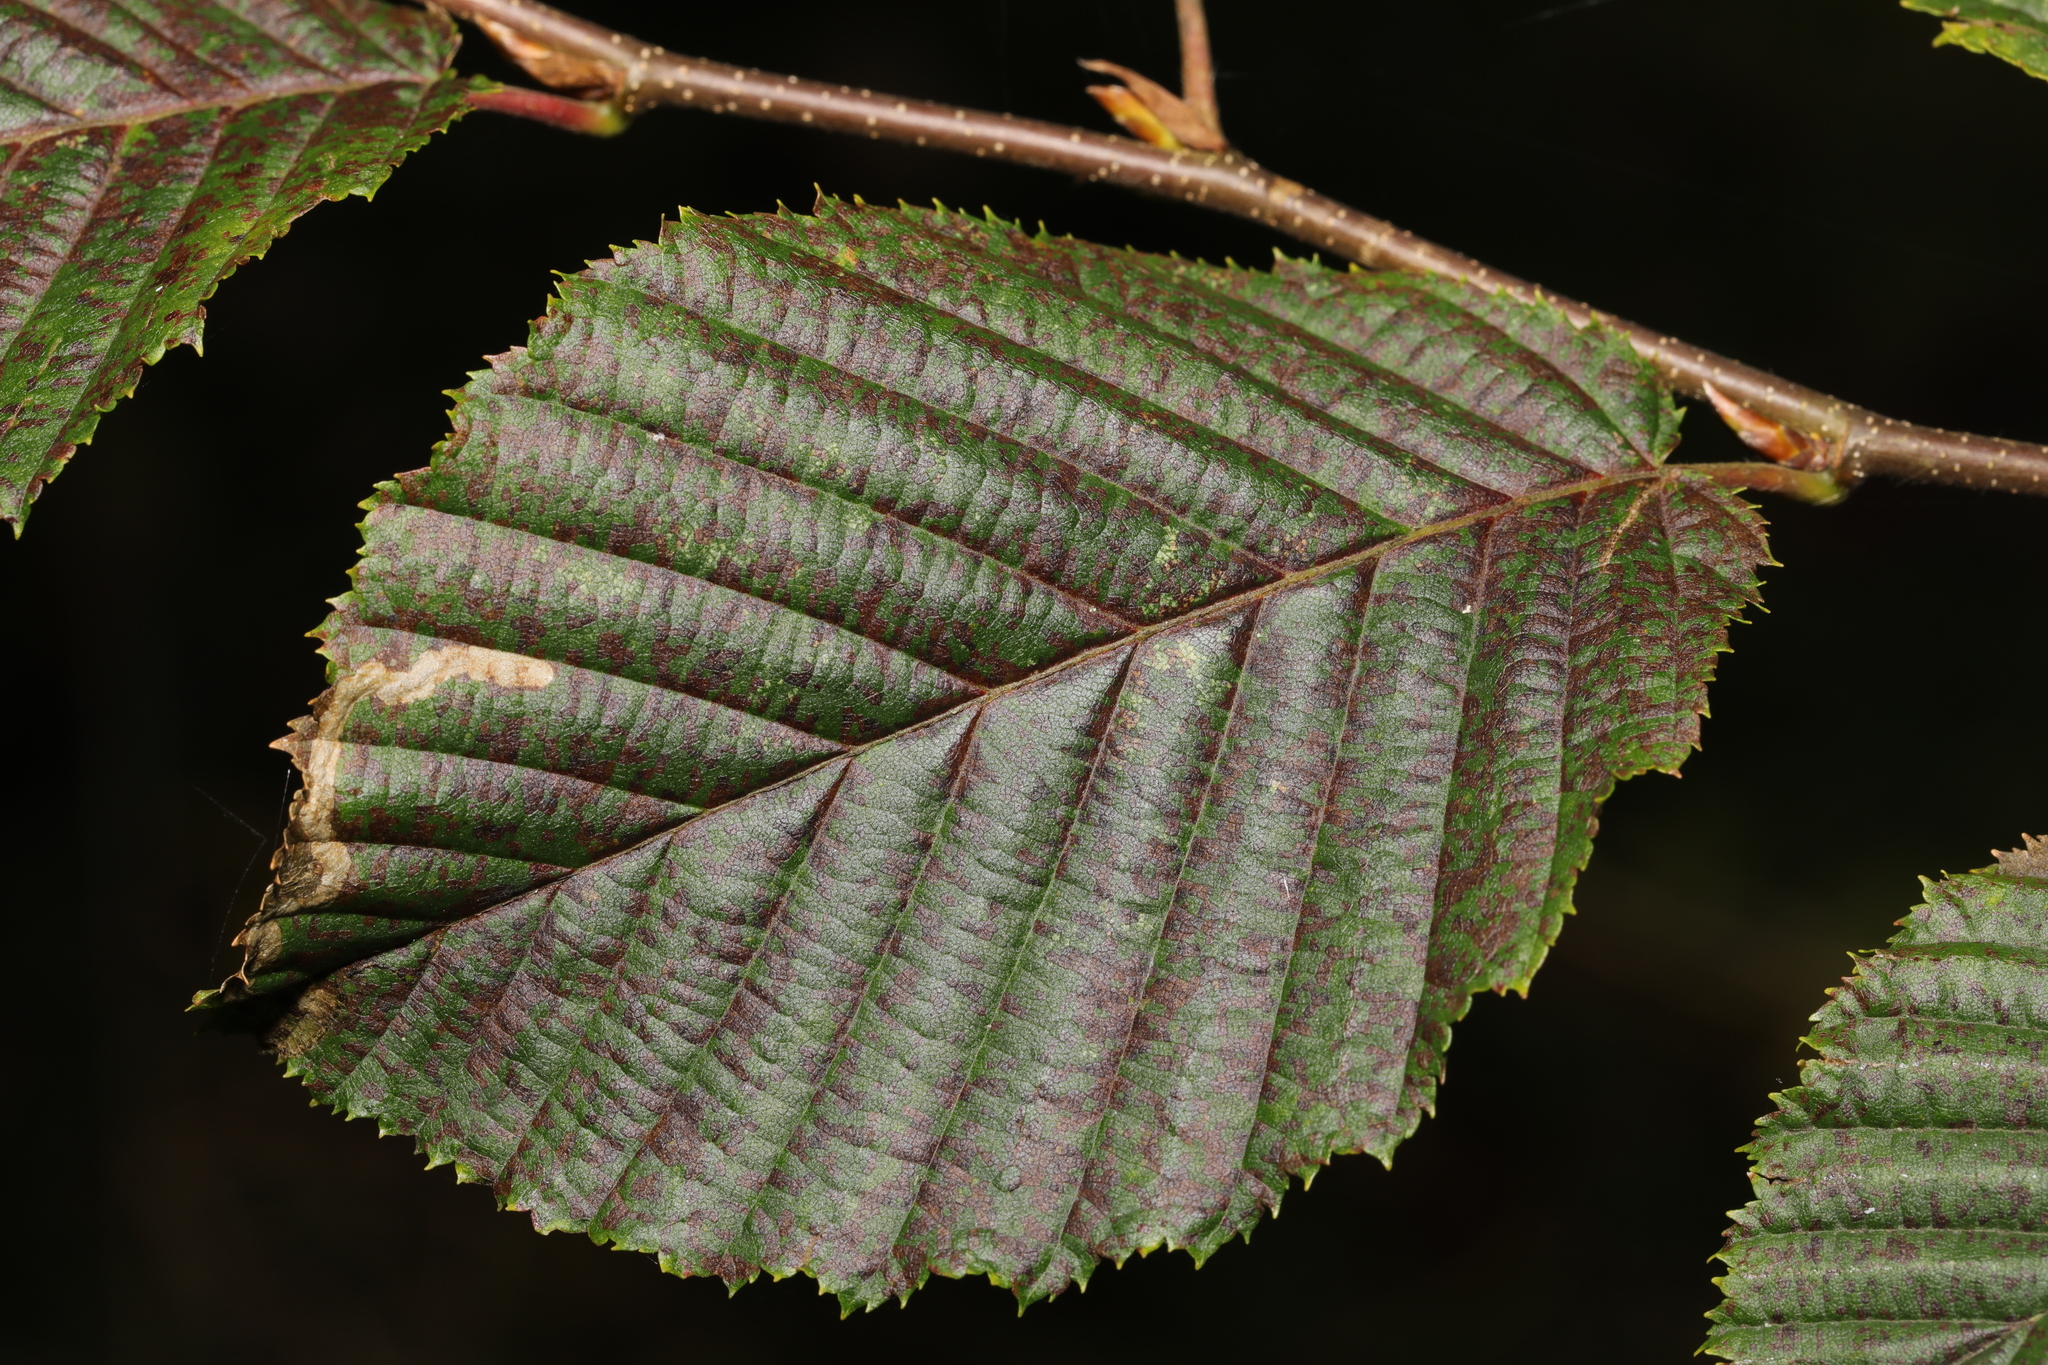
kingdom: Animalia
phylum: Arthropoda
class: Insecta
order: Lepidoptera
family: Nepticulidae
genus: Stigmella
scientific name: Stigmella microtheriella
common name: Nut-tree pigmy
